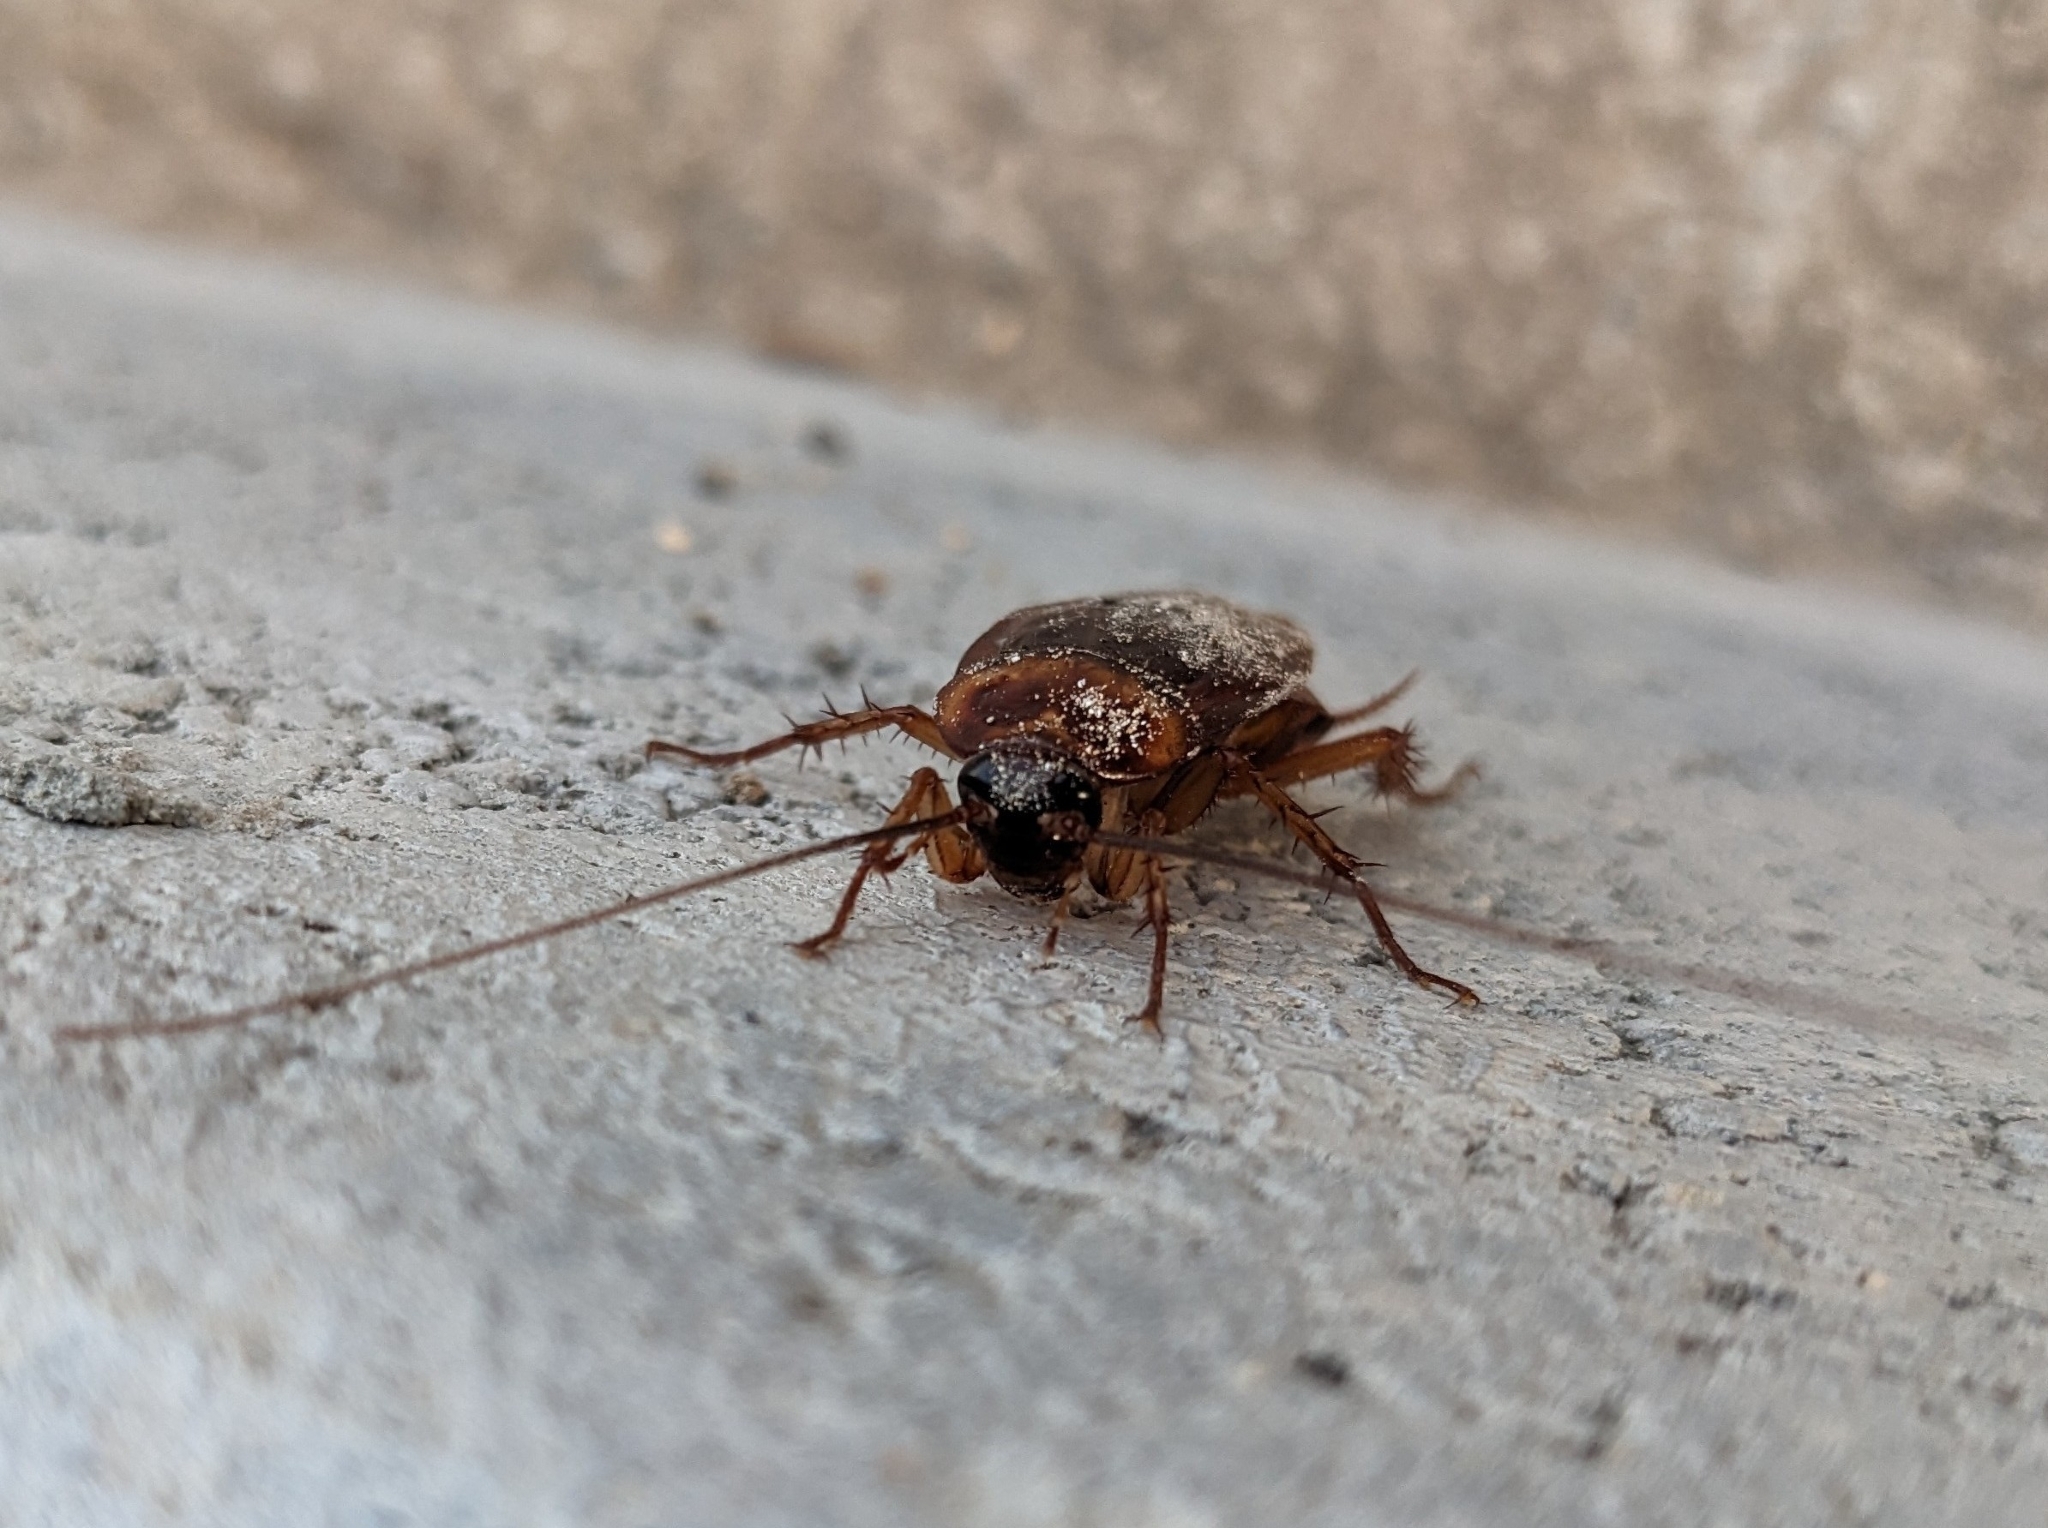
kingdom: Animalia
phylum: Arthropoda
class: Insecta
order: Blattodea
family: Blattidae
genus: Periplaneta
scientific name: Periplaneta americana
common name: American cockroach
